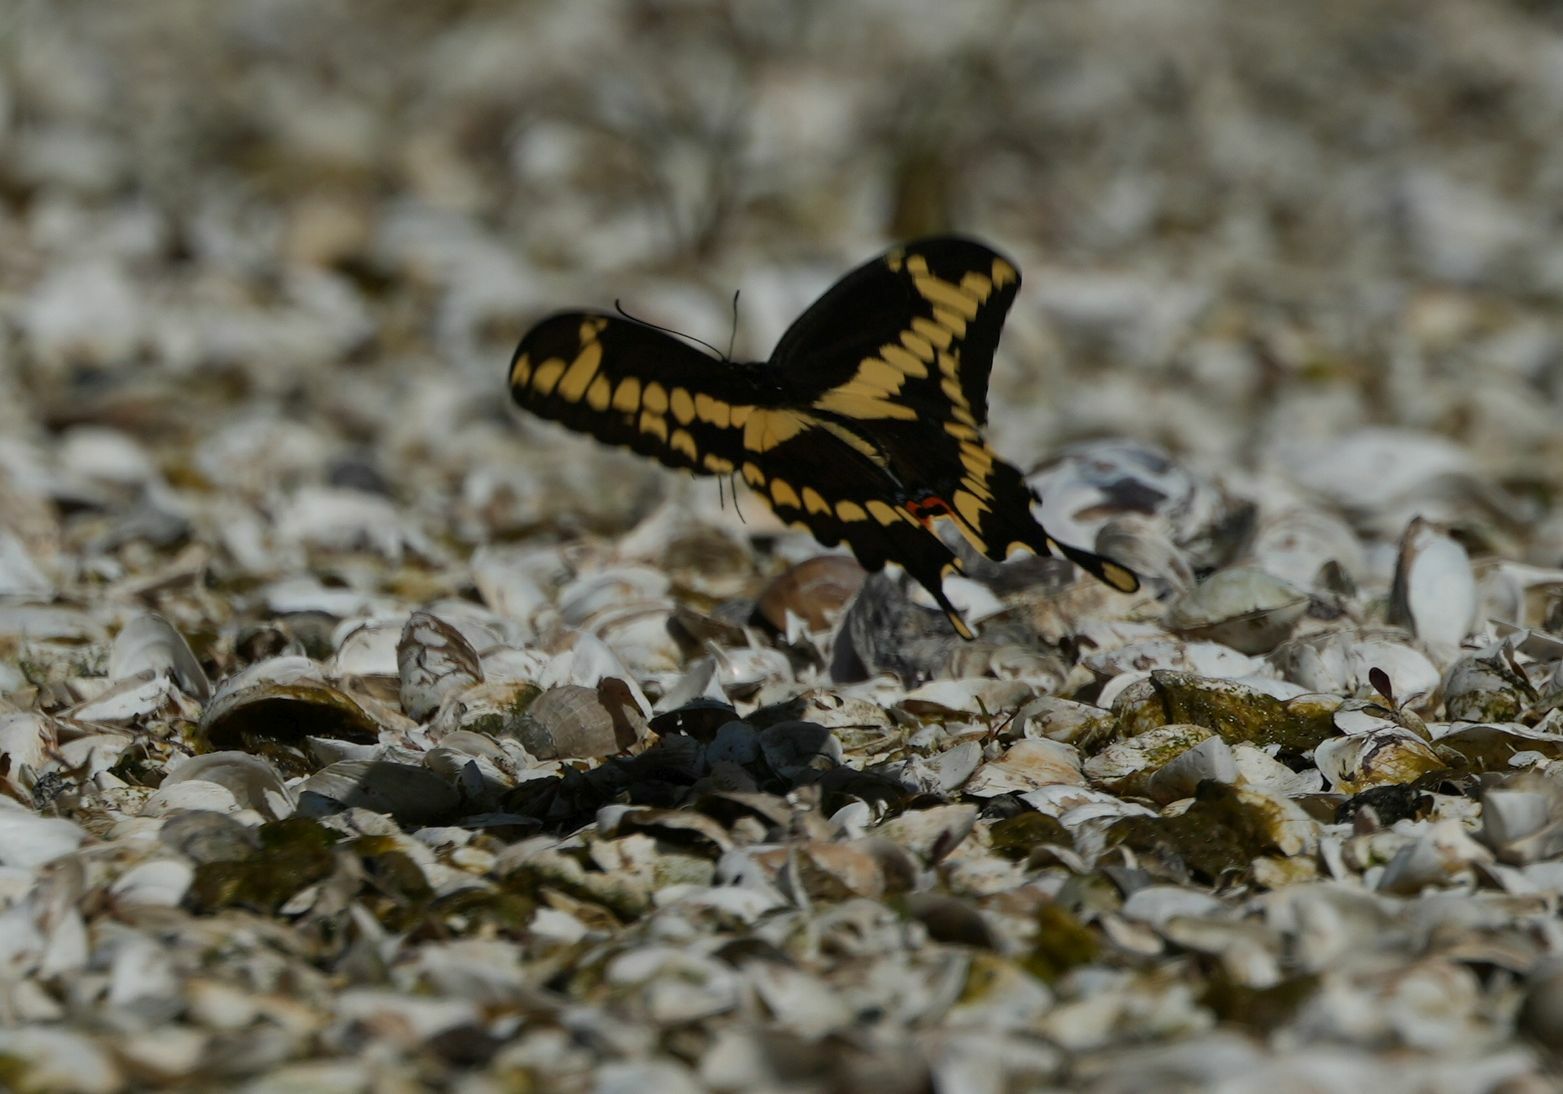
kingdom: Animalia
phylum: Arthropoda
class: Insecta
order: Lepidoptera
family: Papilionidae
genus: Papilio
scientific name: Papilio cresphontes
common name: Giant swallowtail
